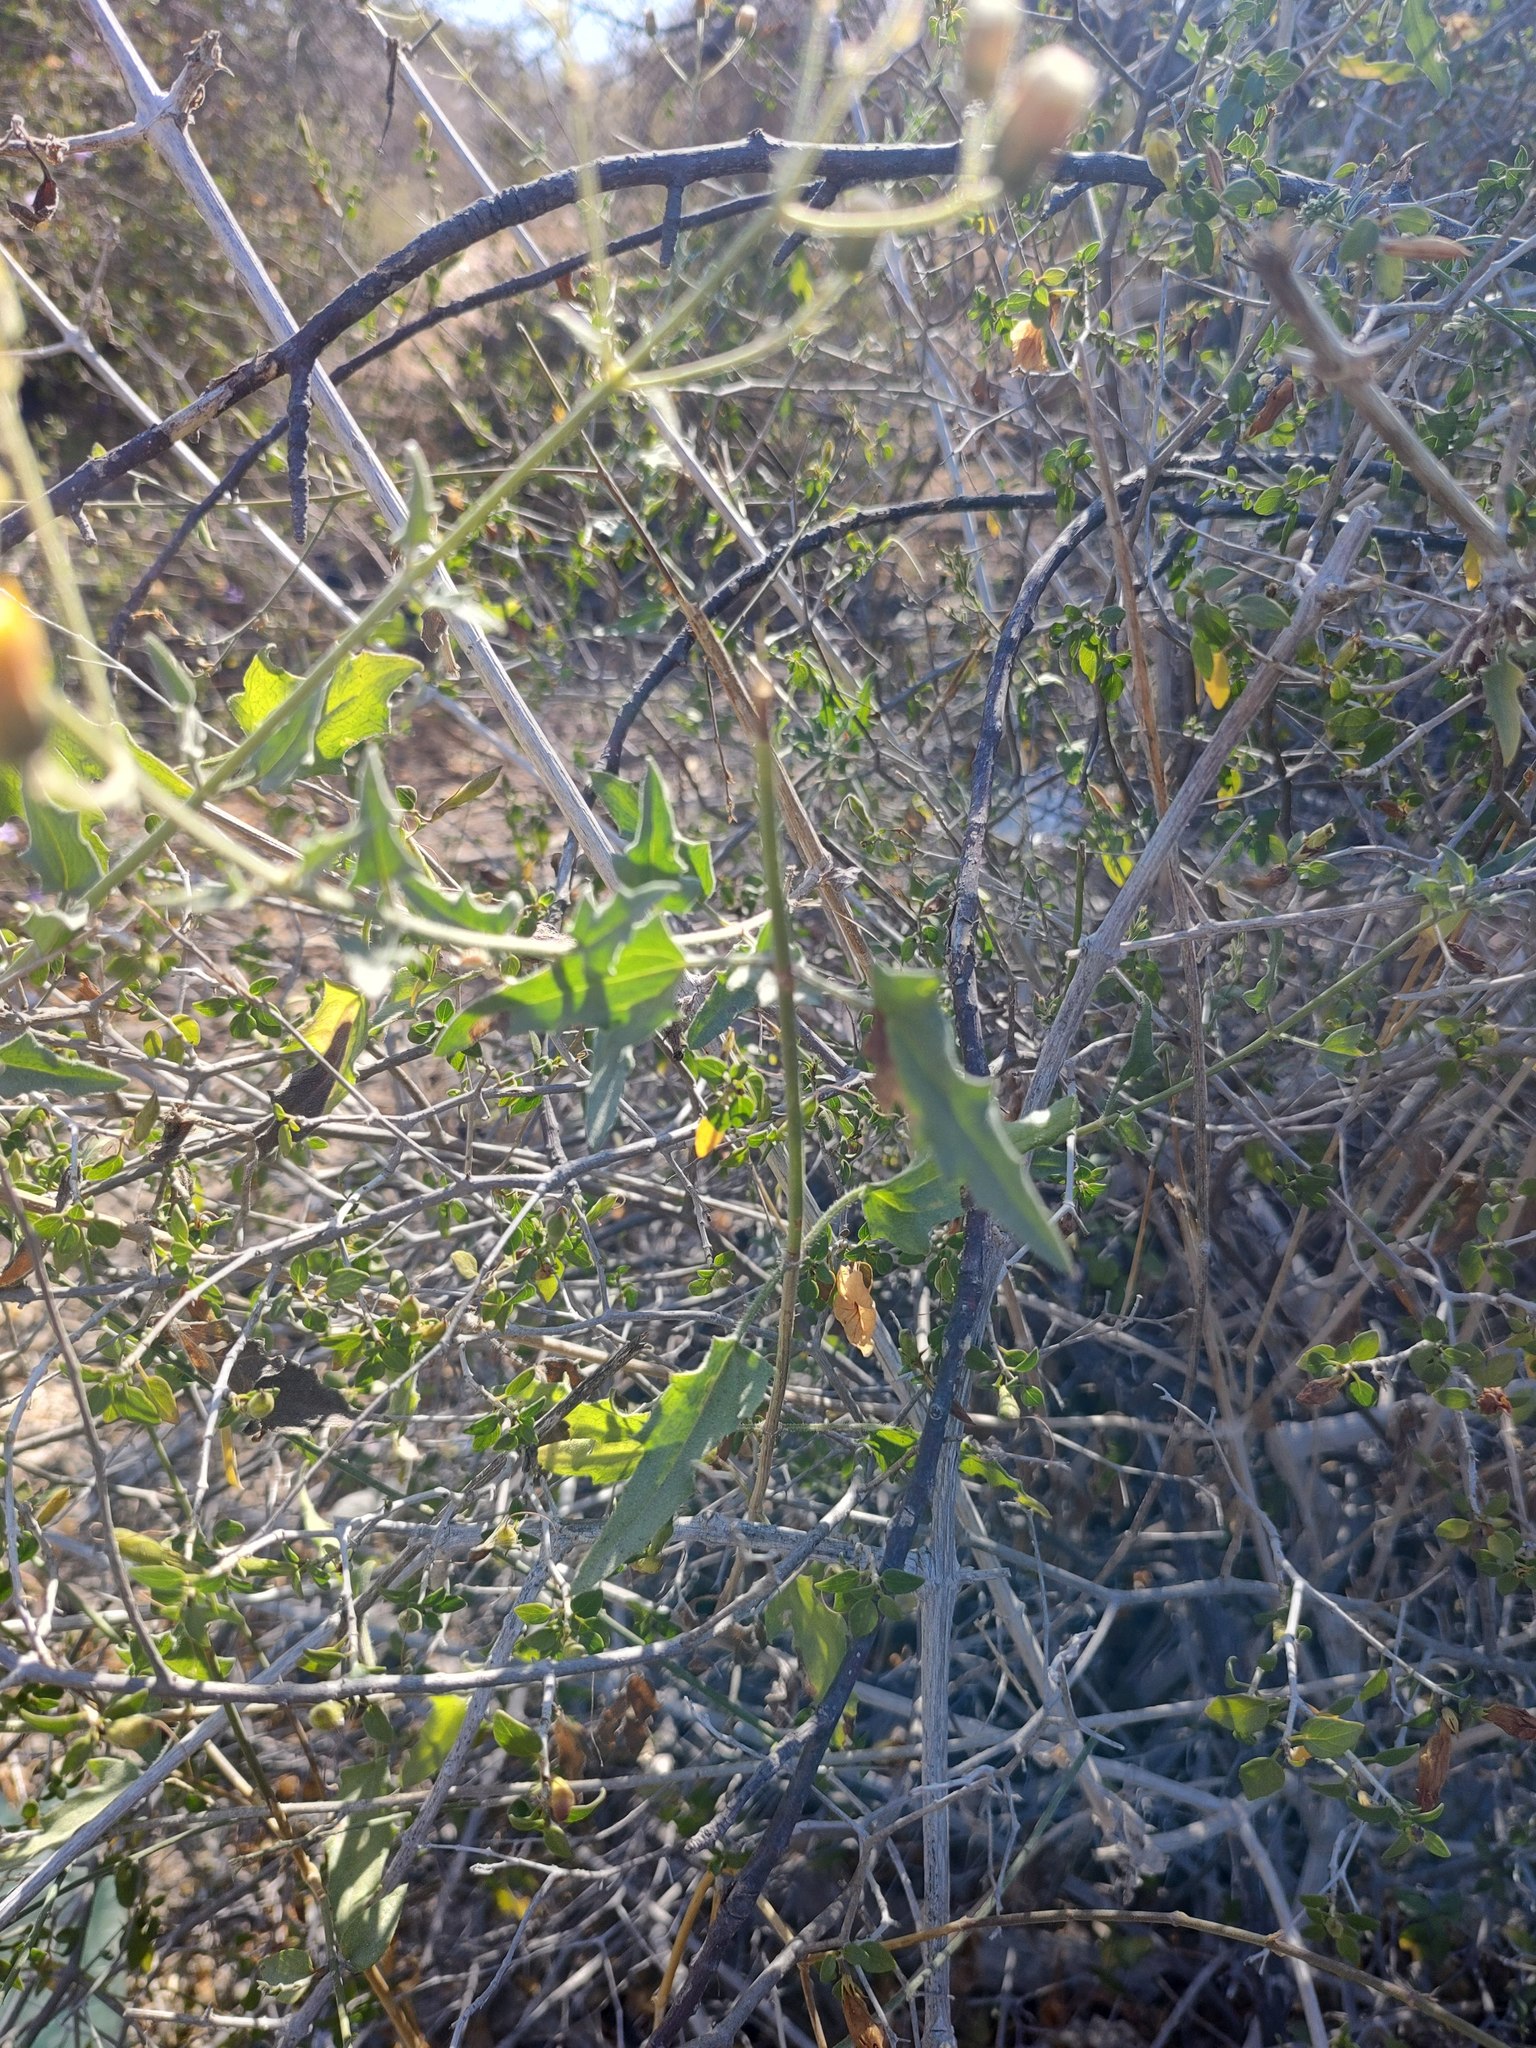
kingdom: Plantae
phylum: Tracheophyta
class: Magnoliopsida
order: Asterales
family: Asteraceae
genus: Bebbia
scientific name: Bebbia atriplicifolia
